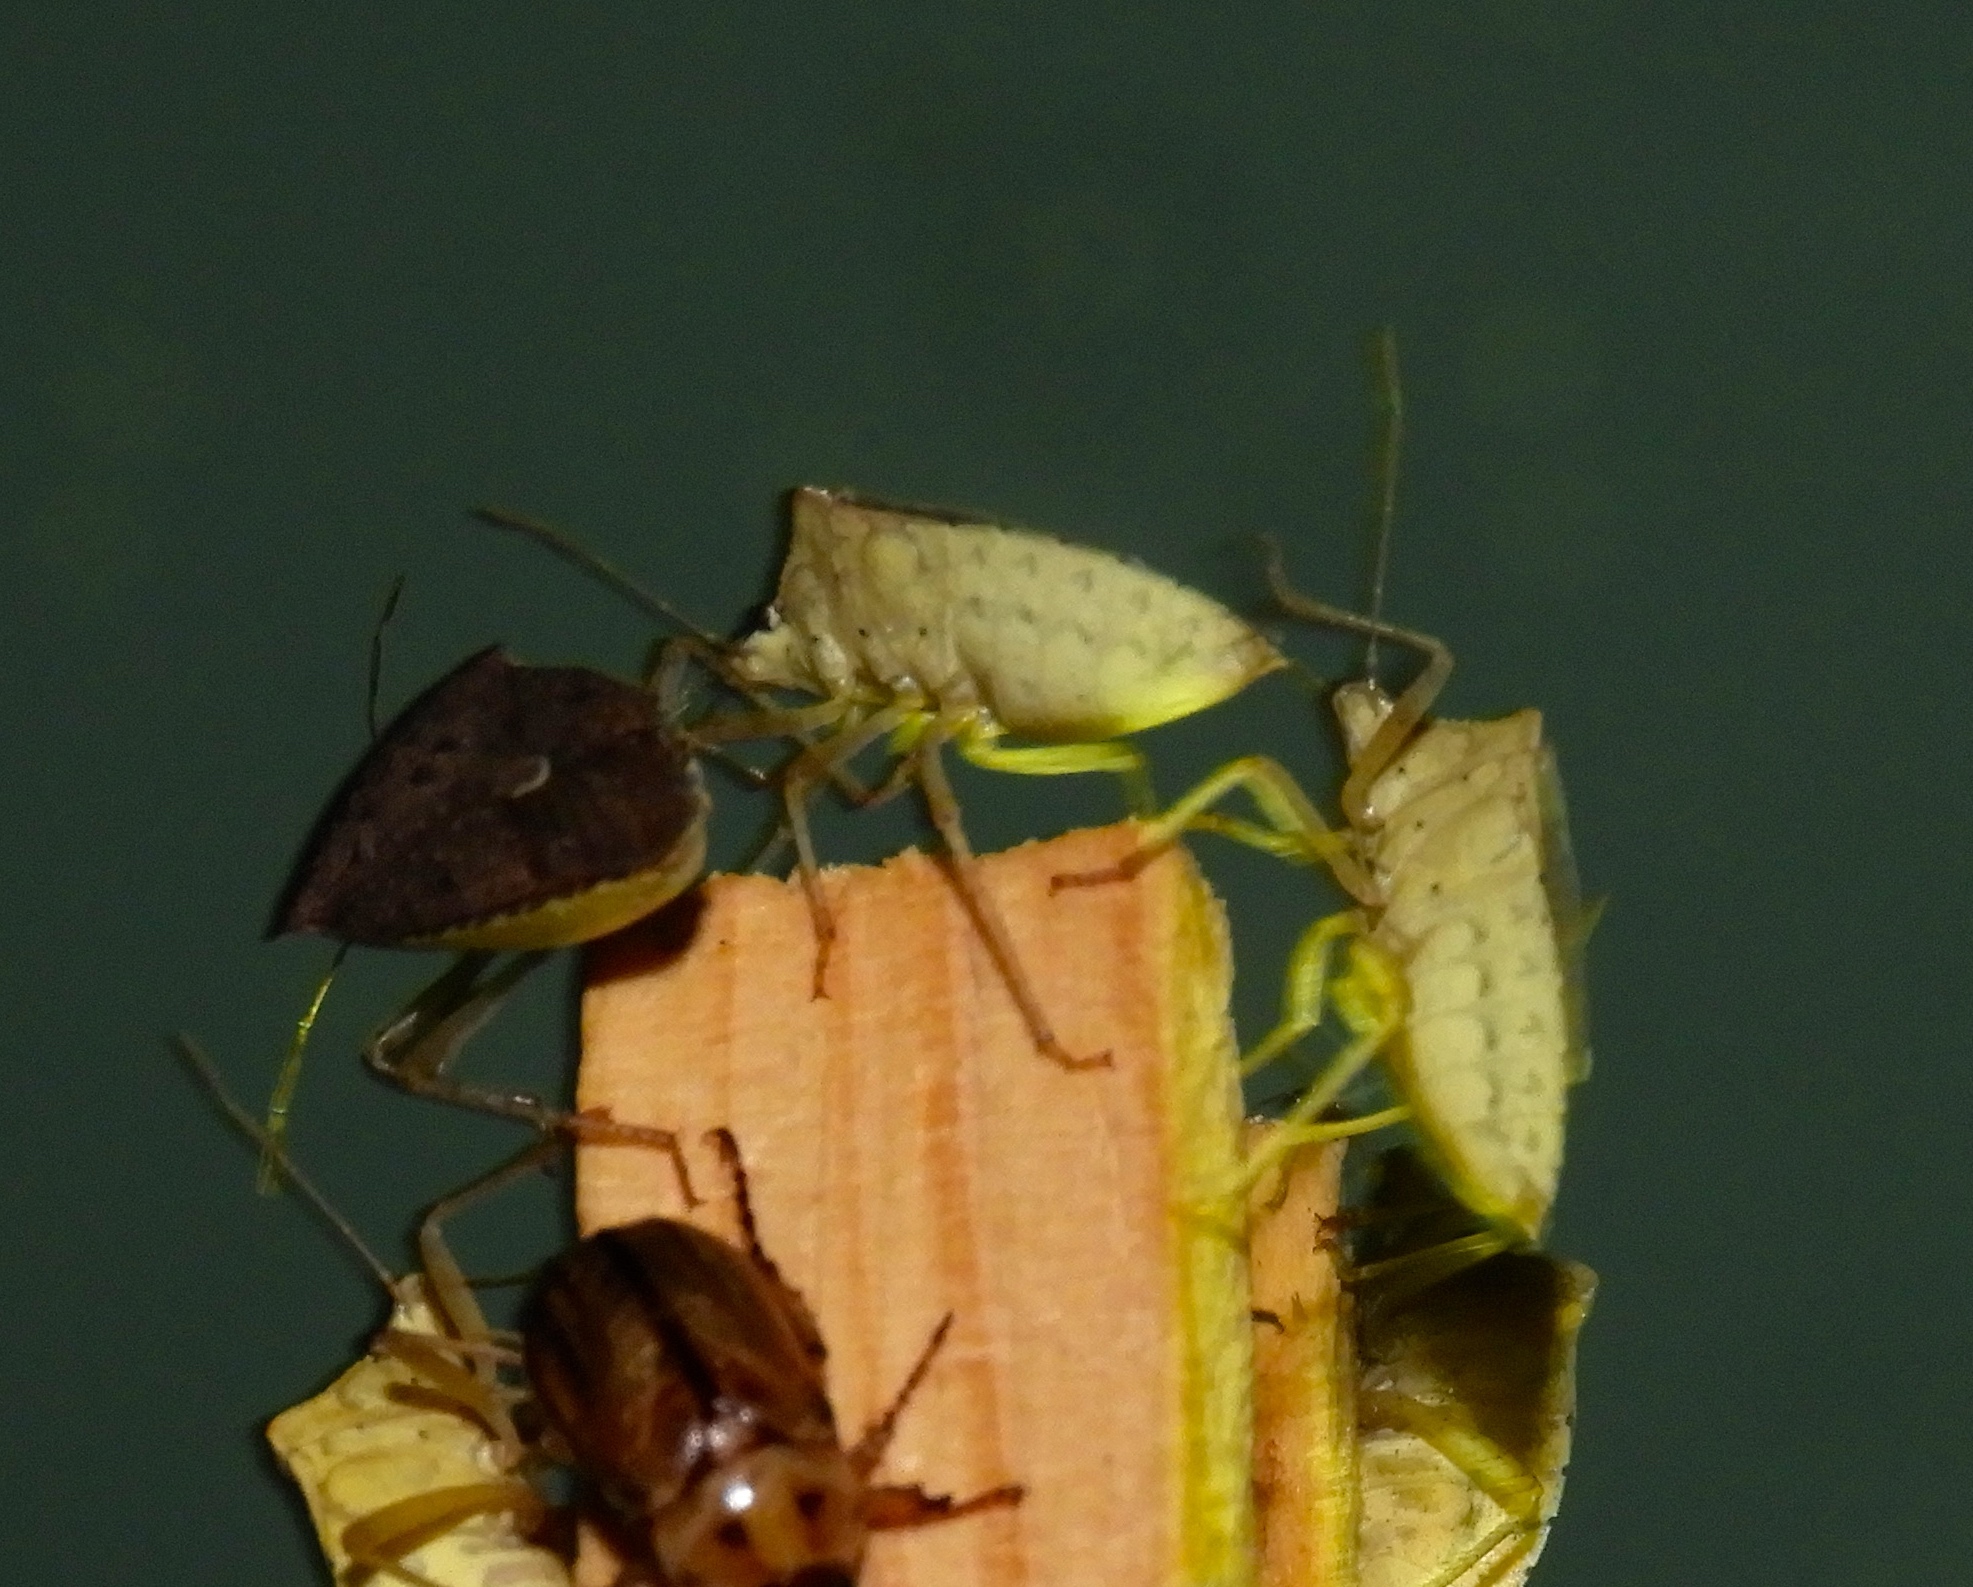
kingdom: Animalia
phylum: Arthropoda
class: Insecta
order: Hemiptera
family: Pentatomidae
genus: Euschistus
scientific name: Euschistus
